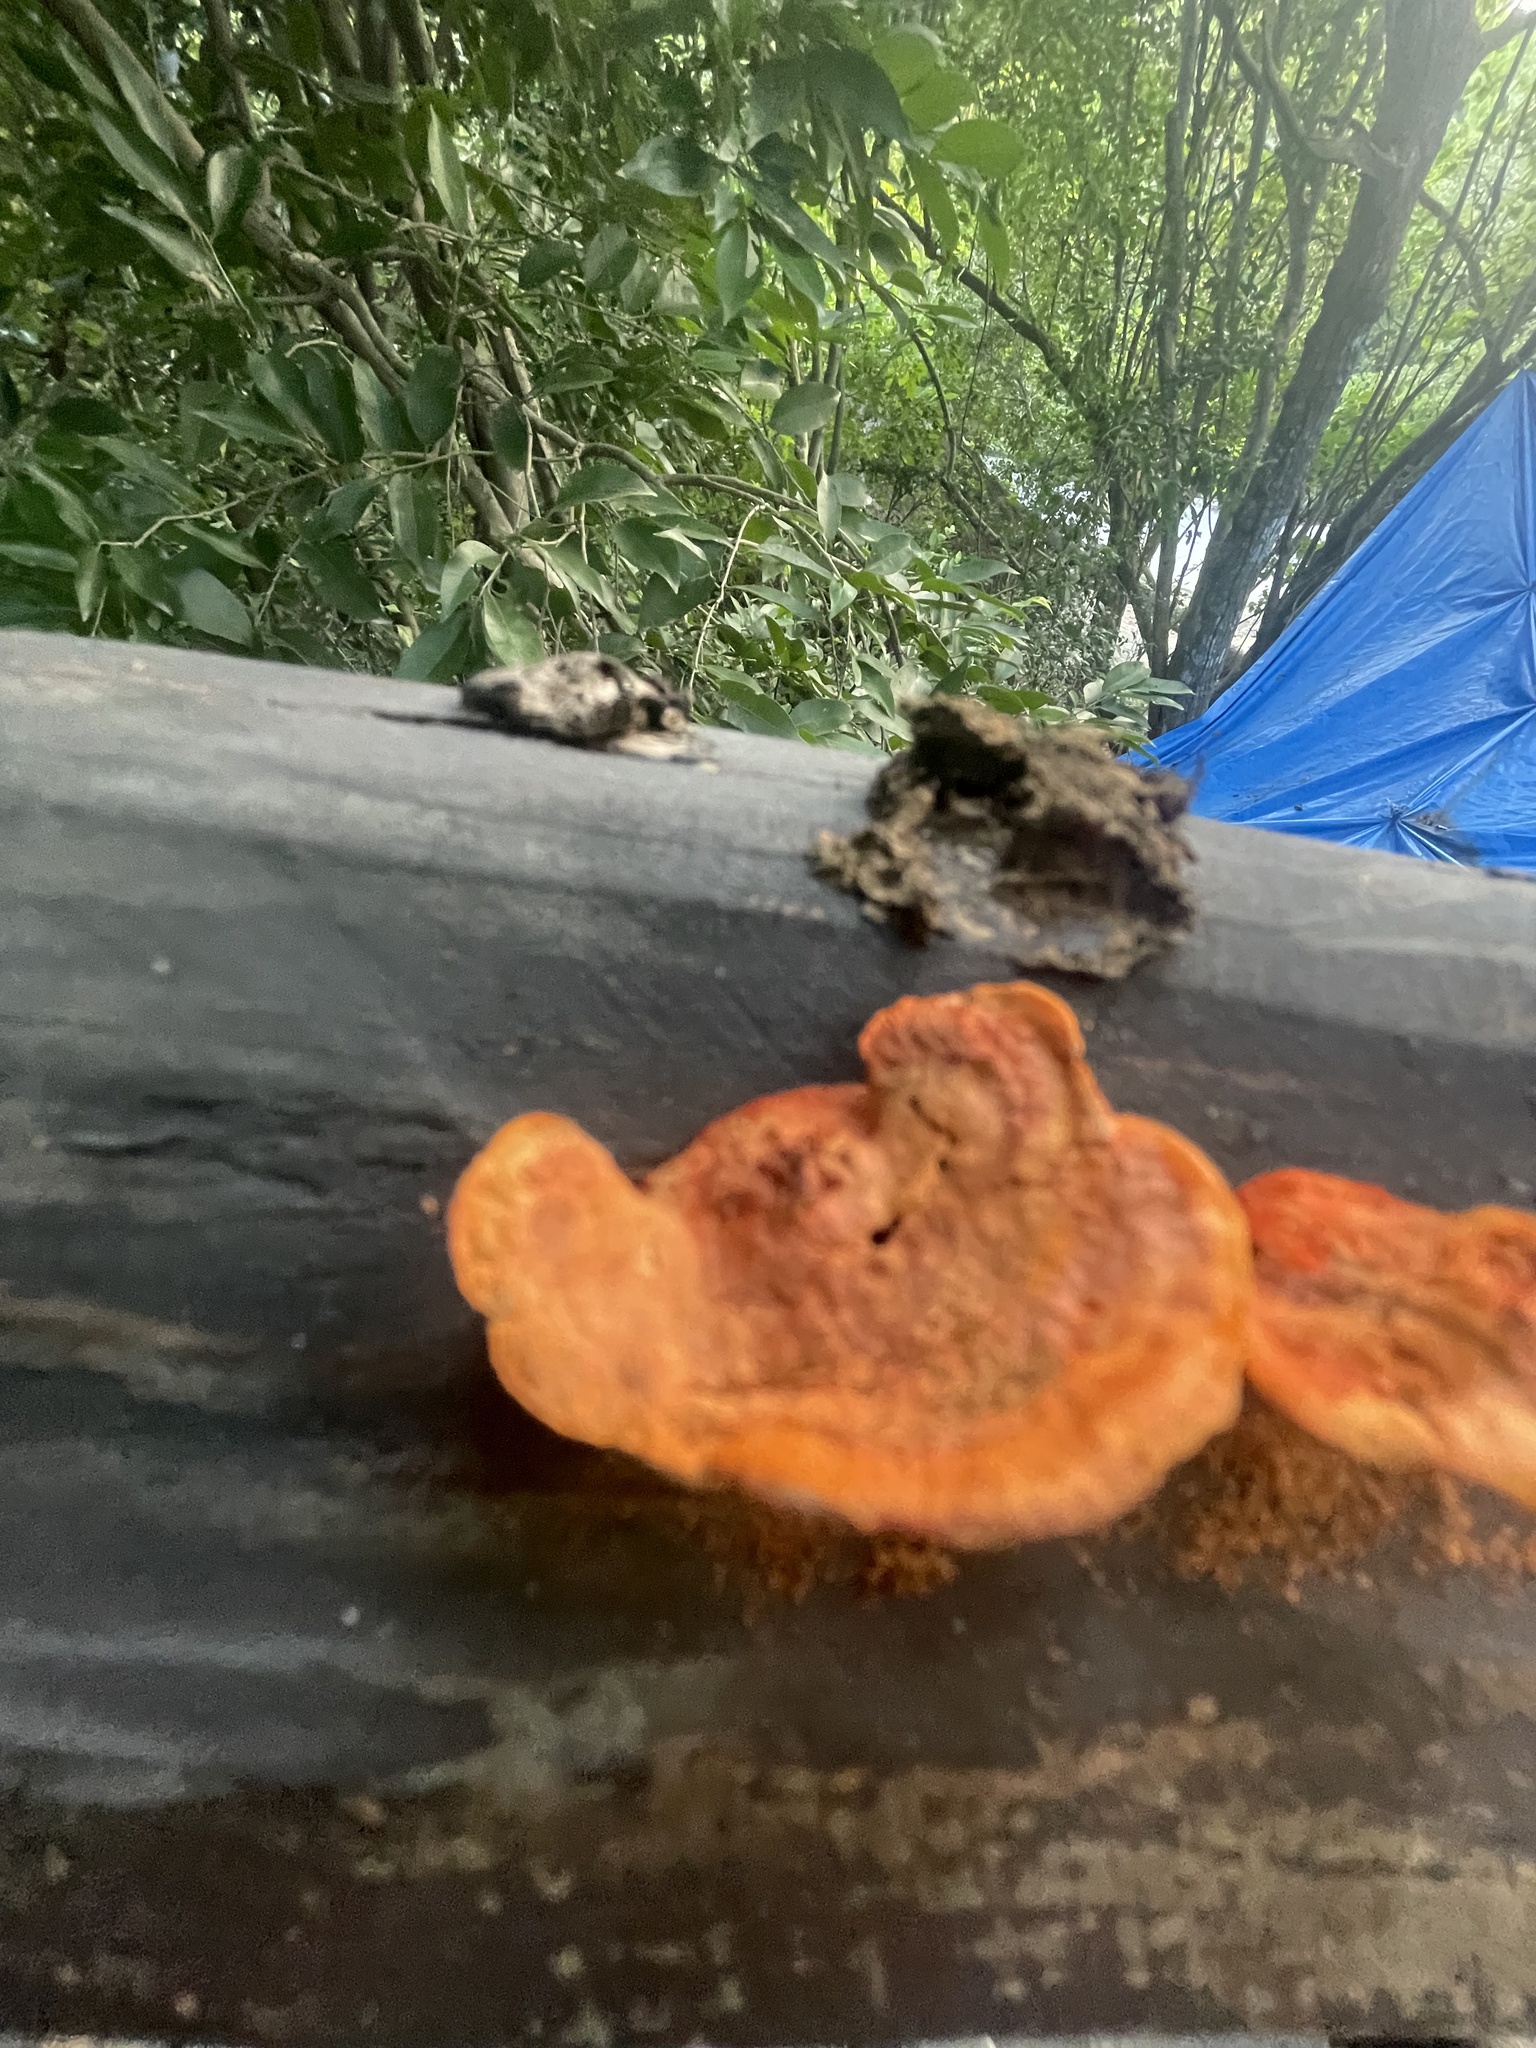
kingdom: Fungi
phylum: Basidiomycota
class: Agaricomycetes
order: Polyporales
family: Polyporaceae
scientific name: Polyporaceae
